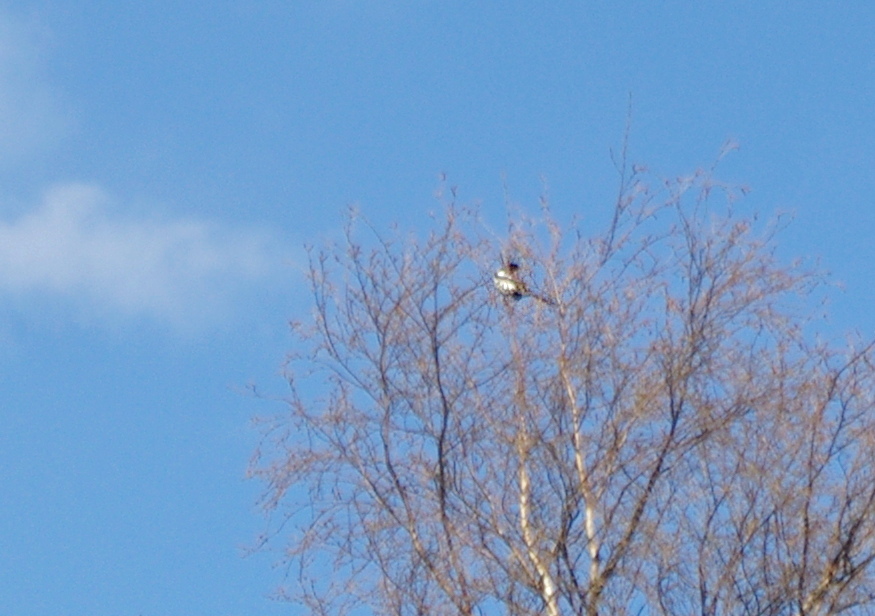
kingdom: Animalia
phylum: Chordata
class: Aves
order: Passeriformes
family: Corvidae
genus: Pica
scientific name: Pica pica
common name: Eurasian magpie
